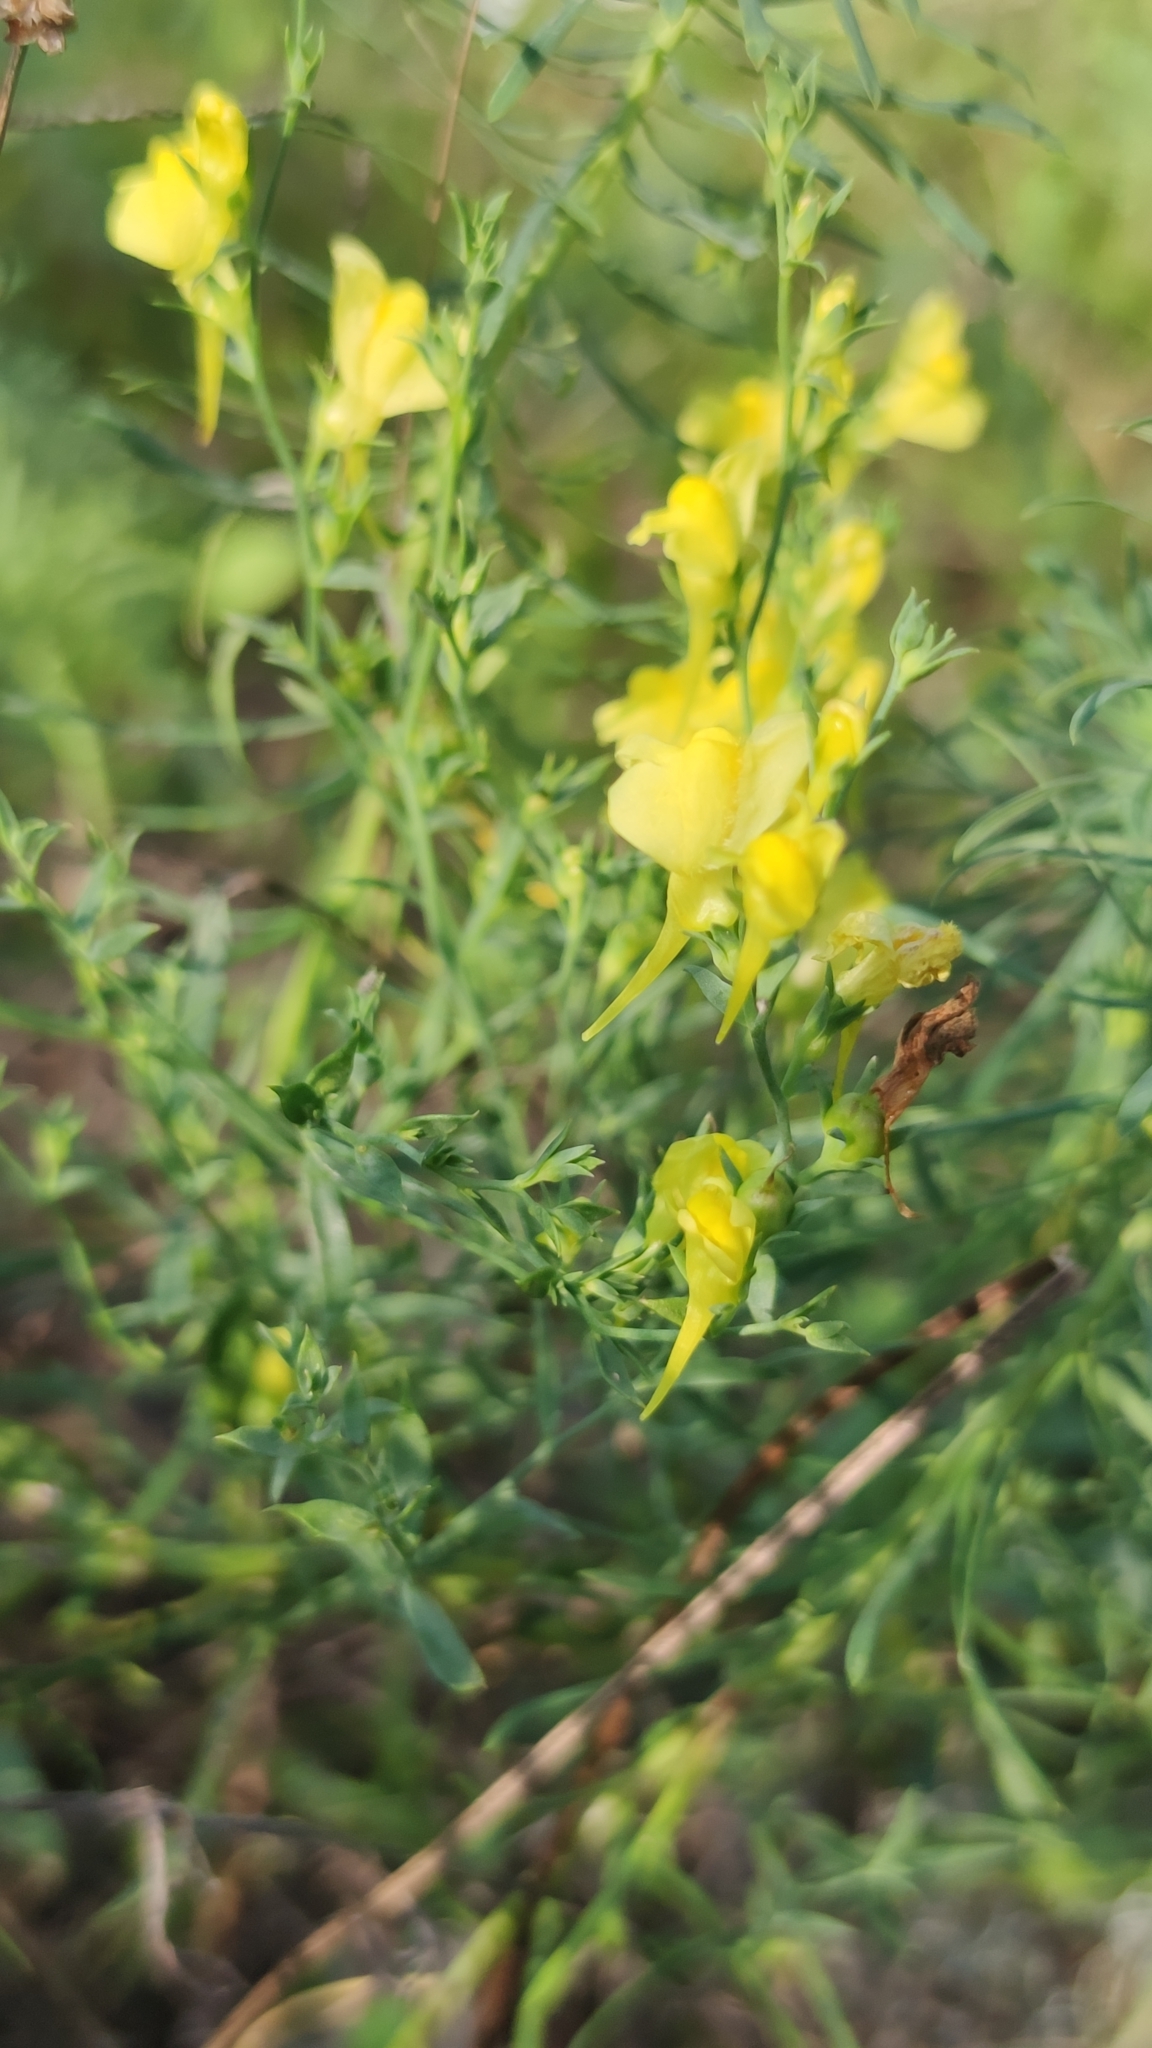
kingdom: Plantae
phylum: Tracheophyta
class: Magnoliopsida
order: Lamiales
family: Plantaginaceae
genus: Linaria
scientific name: Linaria genistifolia
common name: Broomleaf toadflax
